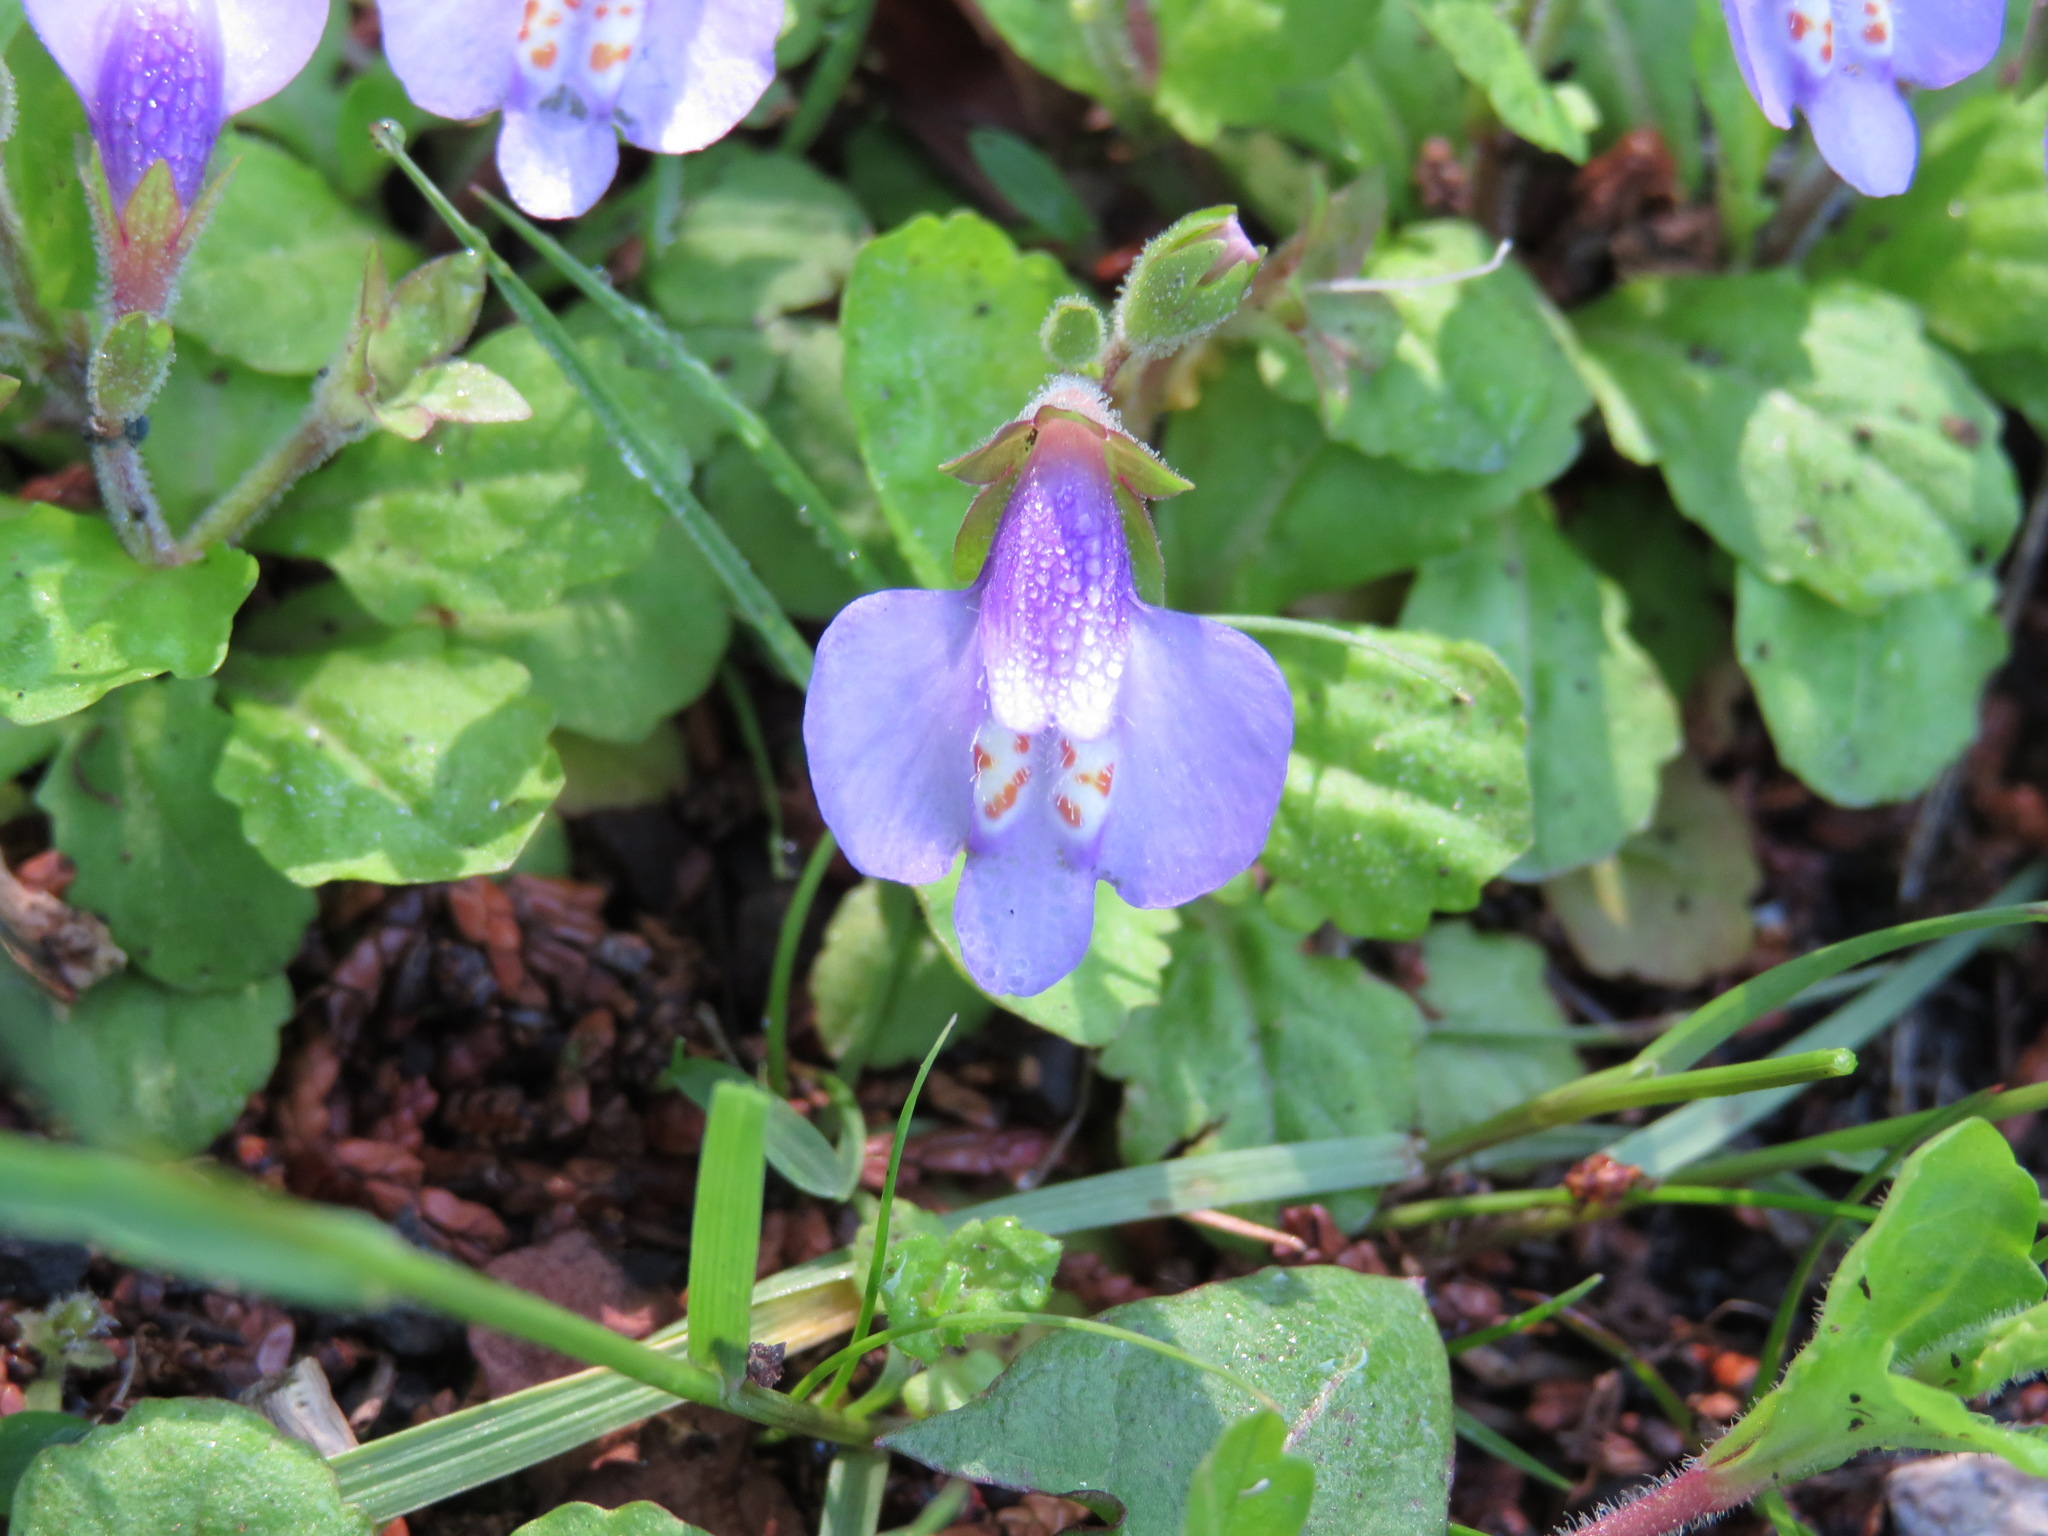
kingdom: Plantae
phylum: Tracheophyta
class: Magnoliopsida
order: Lamiales
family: Mazaceae
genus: Mazus
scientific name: Mazus miquelii
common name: Miquel's mazus
